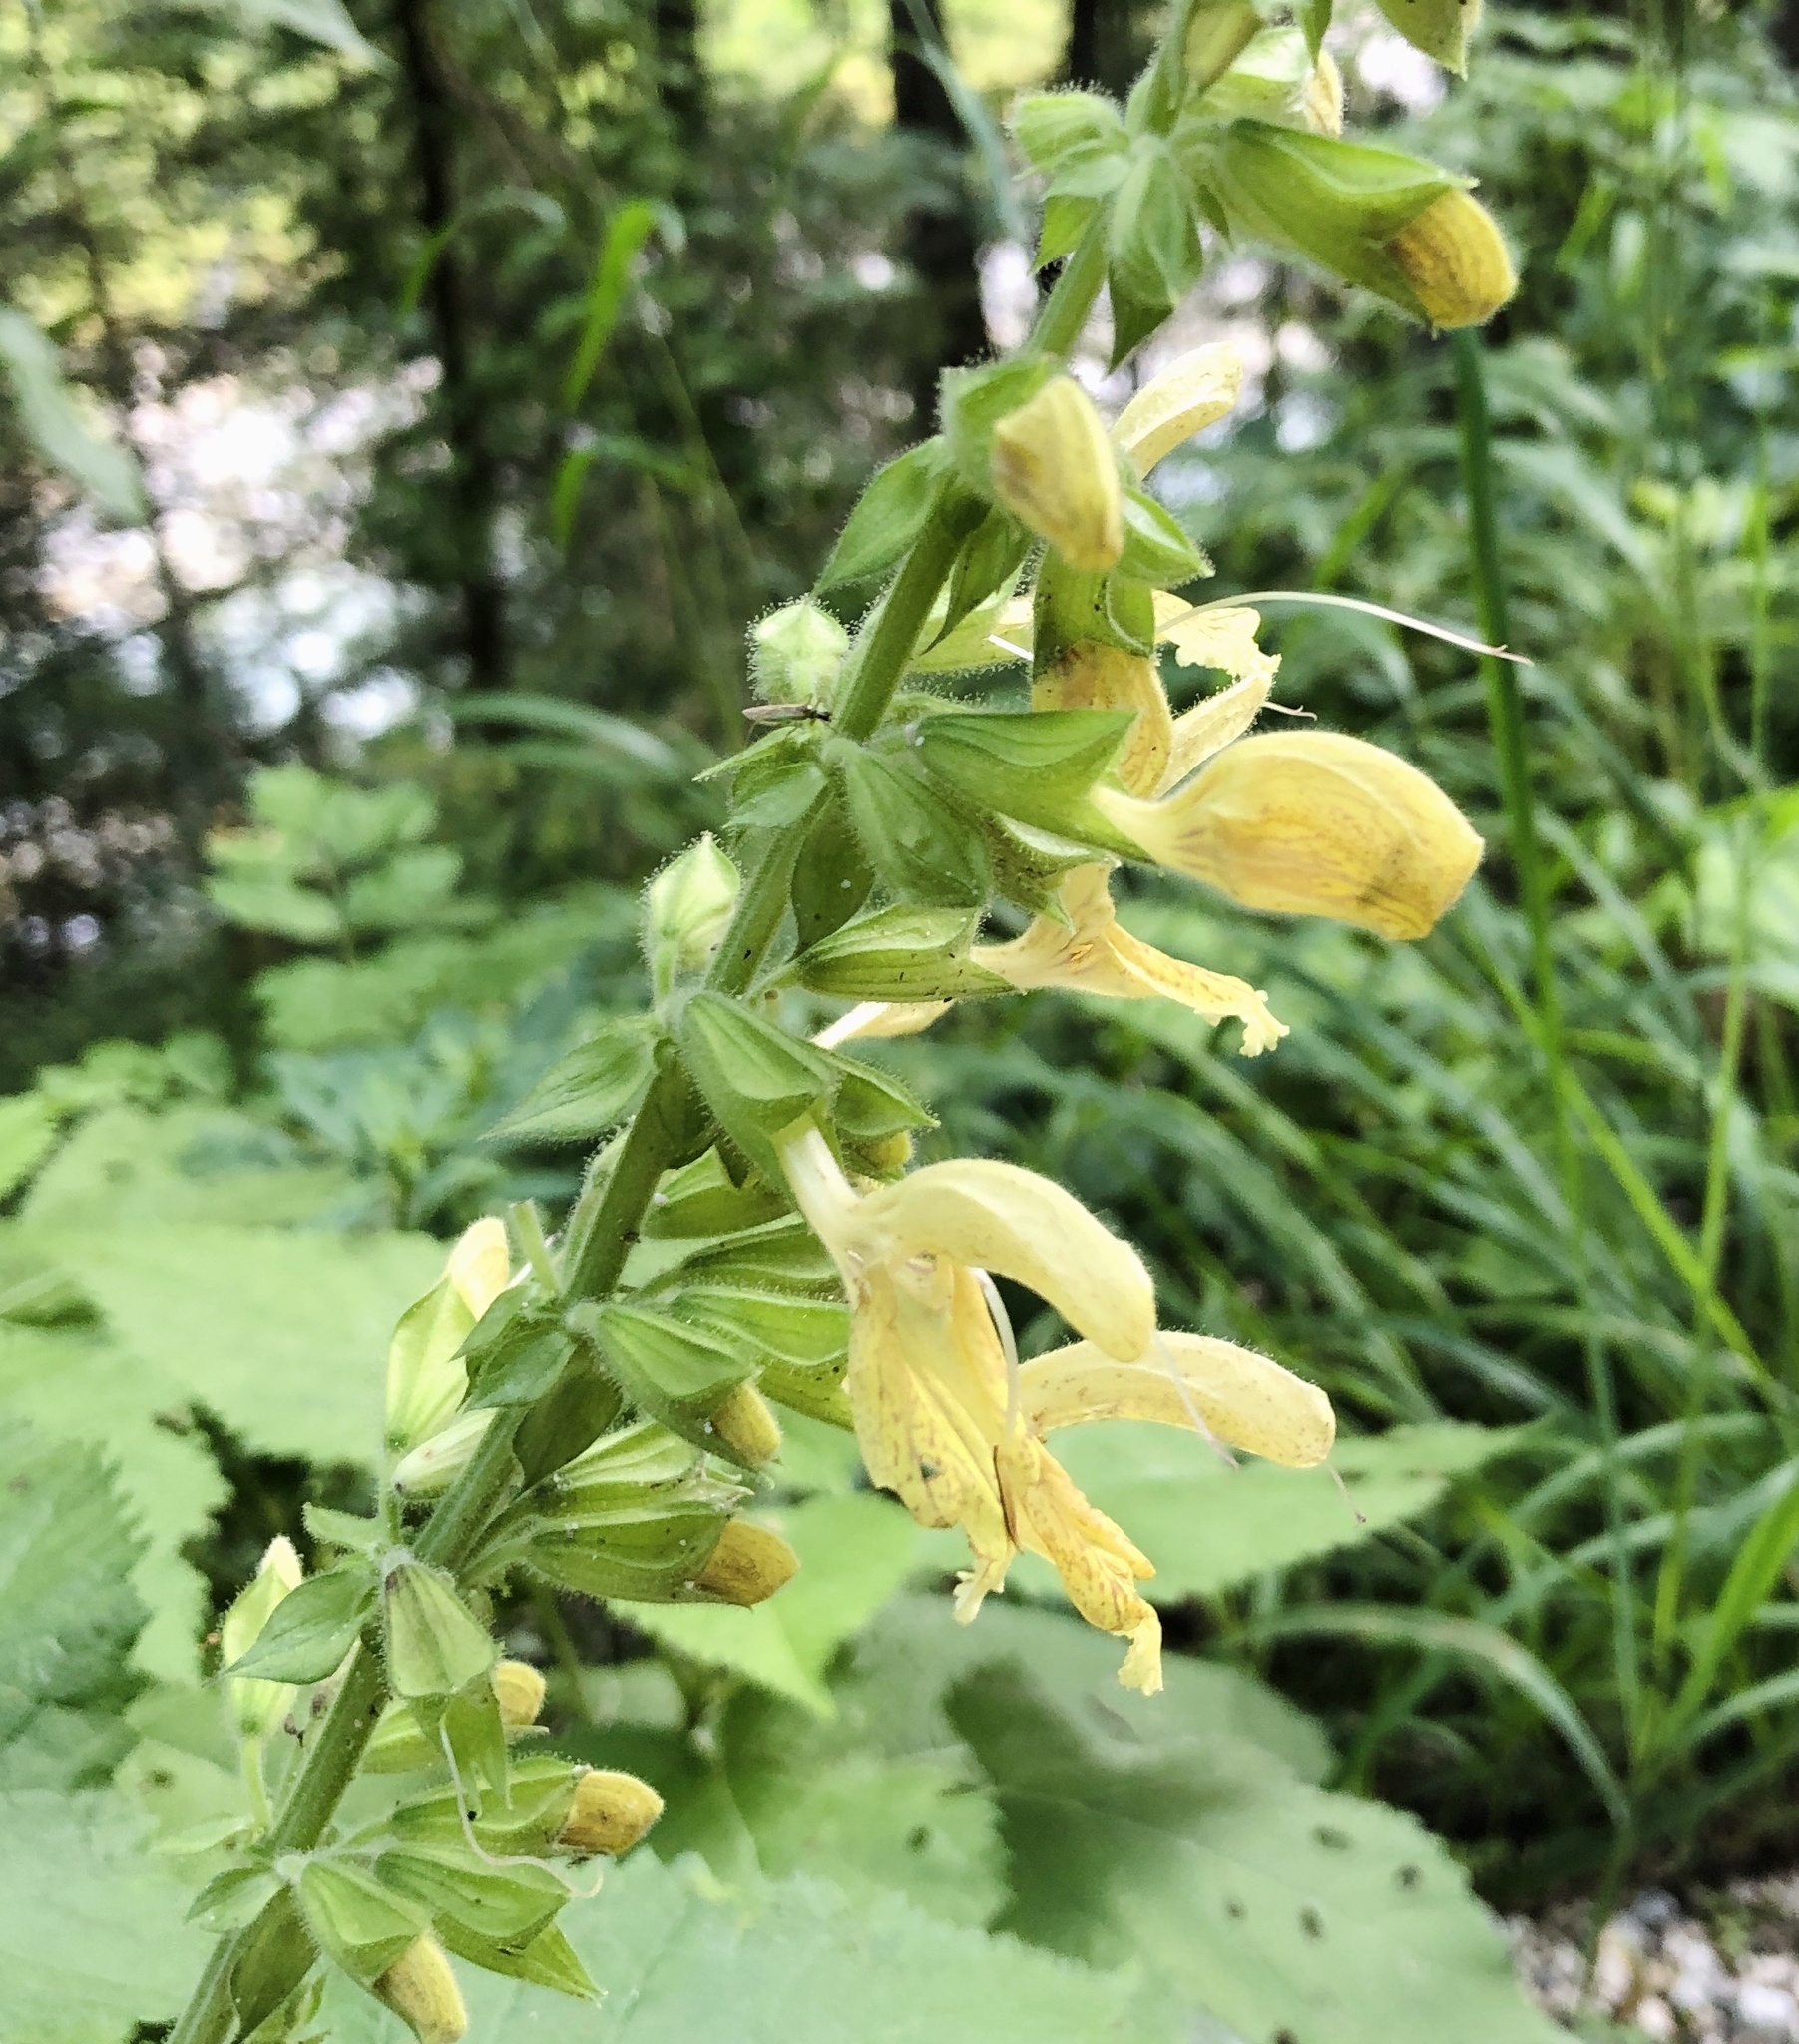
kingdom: Plantae
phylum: Tracheophyta
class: Magnoliopsida
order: Lamiales
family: Lamiaceae
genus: Salvia
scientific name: Salvia glutinosa
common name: Sticky clary
